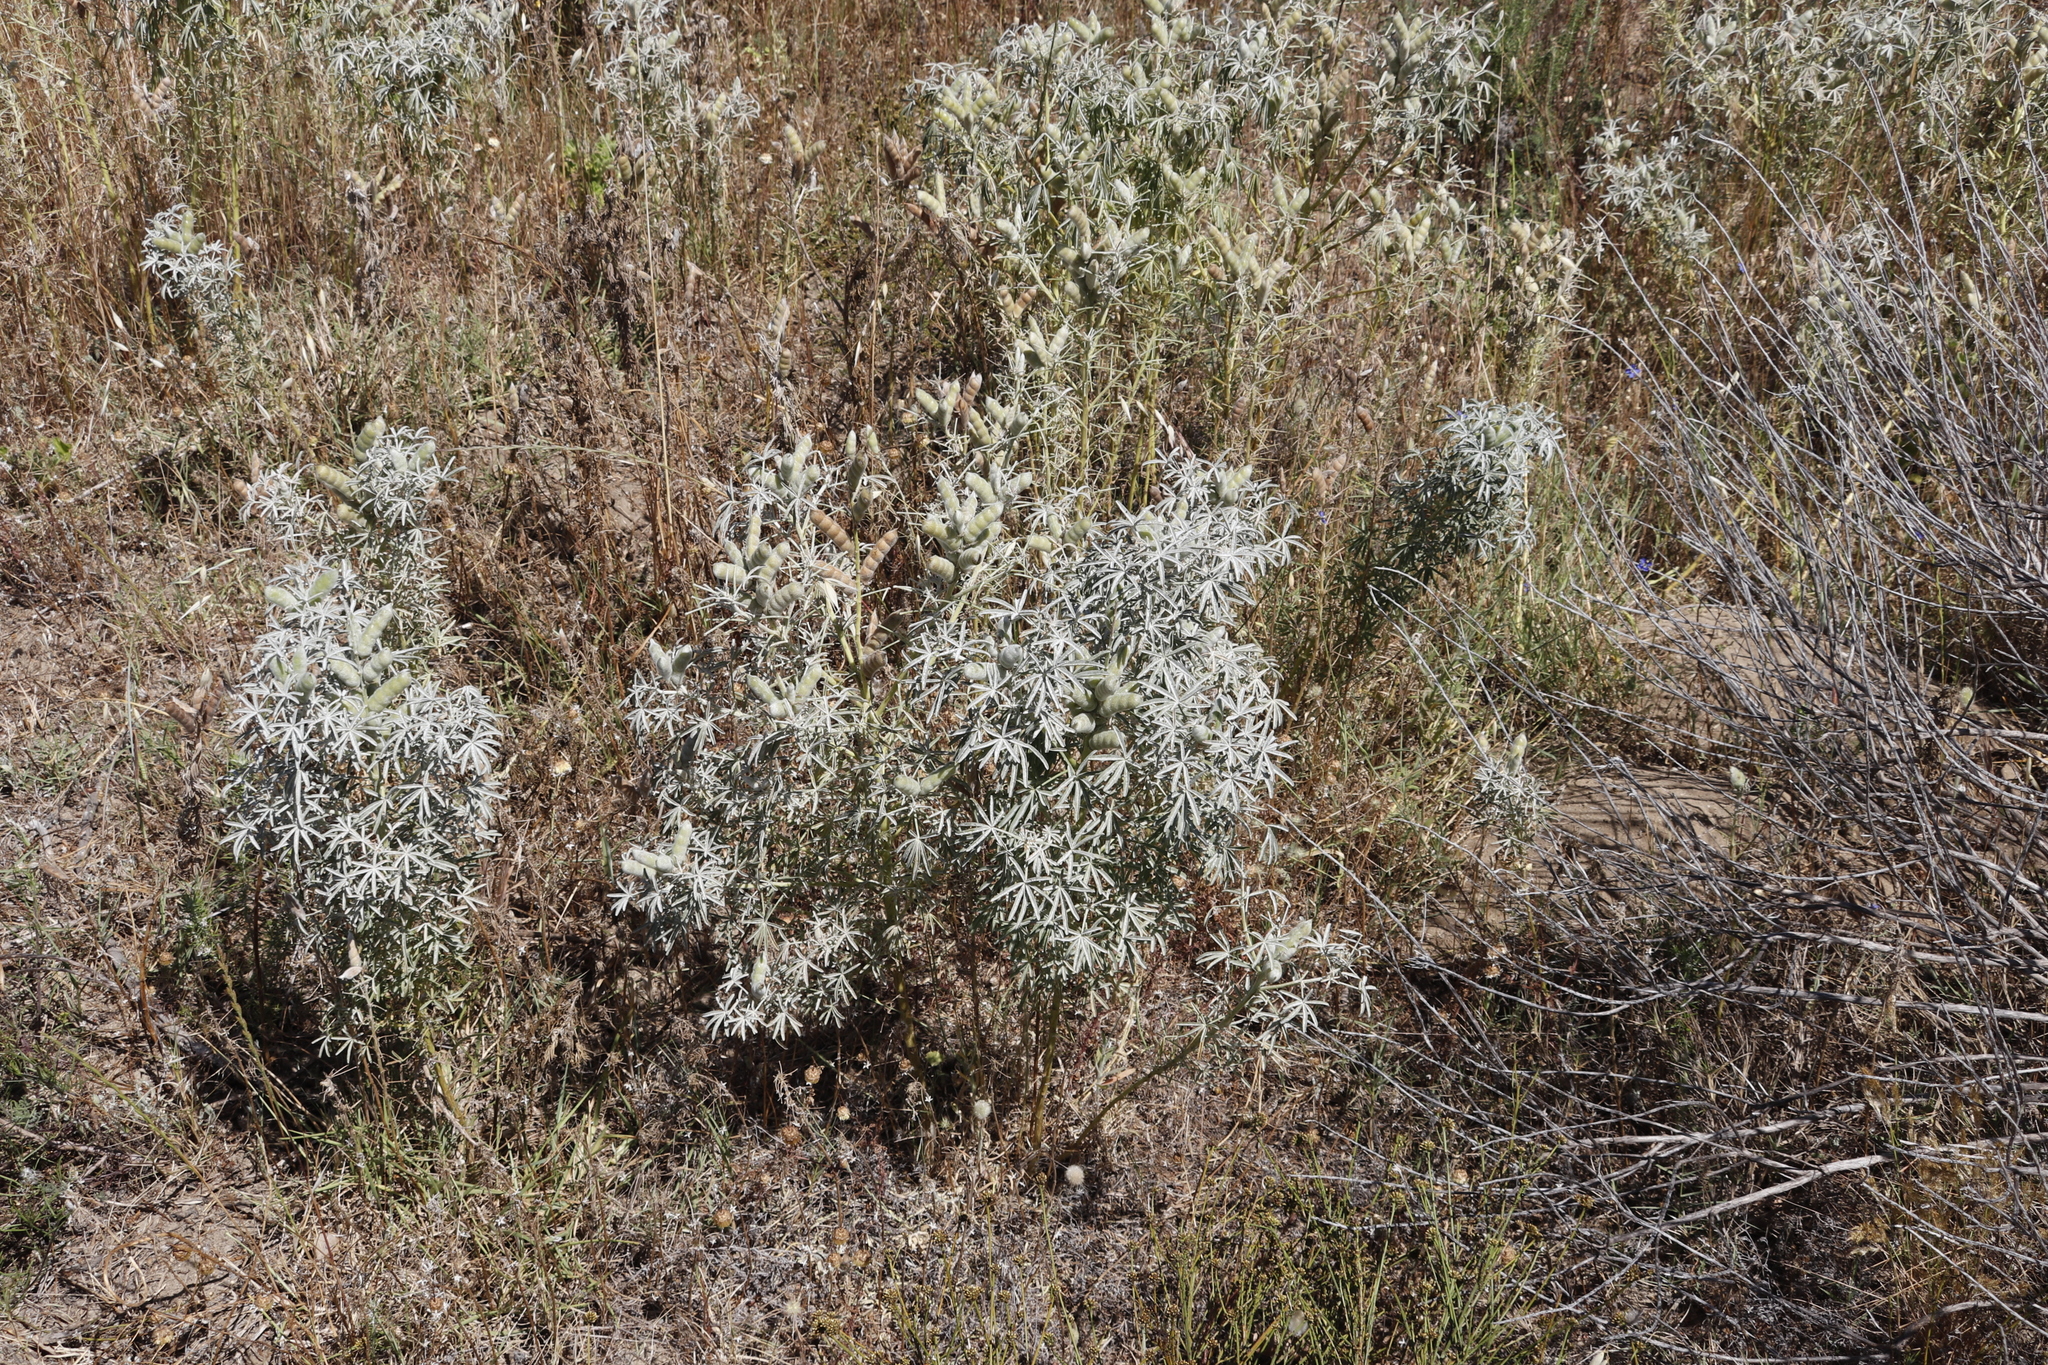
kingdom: Plantae
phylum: Tracheophyta
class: Magnoliopsida
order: Fabales
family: Fabaceae
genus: Lupinus
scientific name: Lupinus angustifolius
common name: Narrow-leaved lupin
